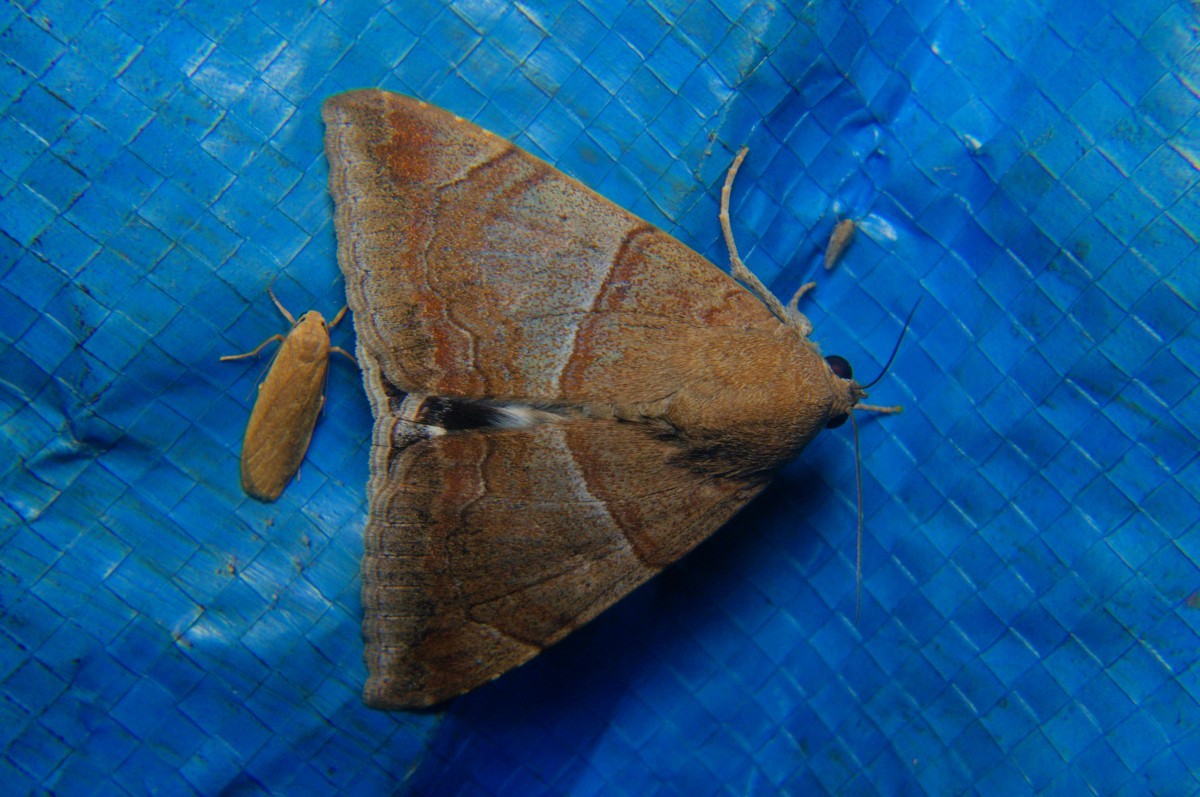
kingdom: Animalia
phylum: Arthropoda
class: Insecta
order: Lepidoptera
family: Erebidae
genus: Achaea
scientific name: Achaea janata
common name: Croton caterpillar
